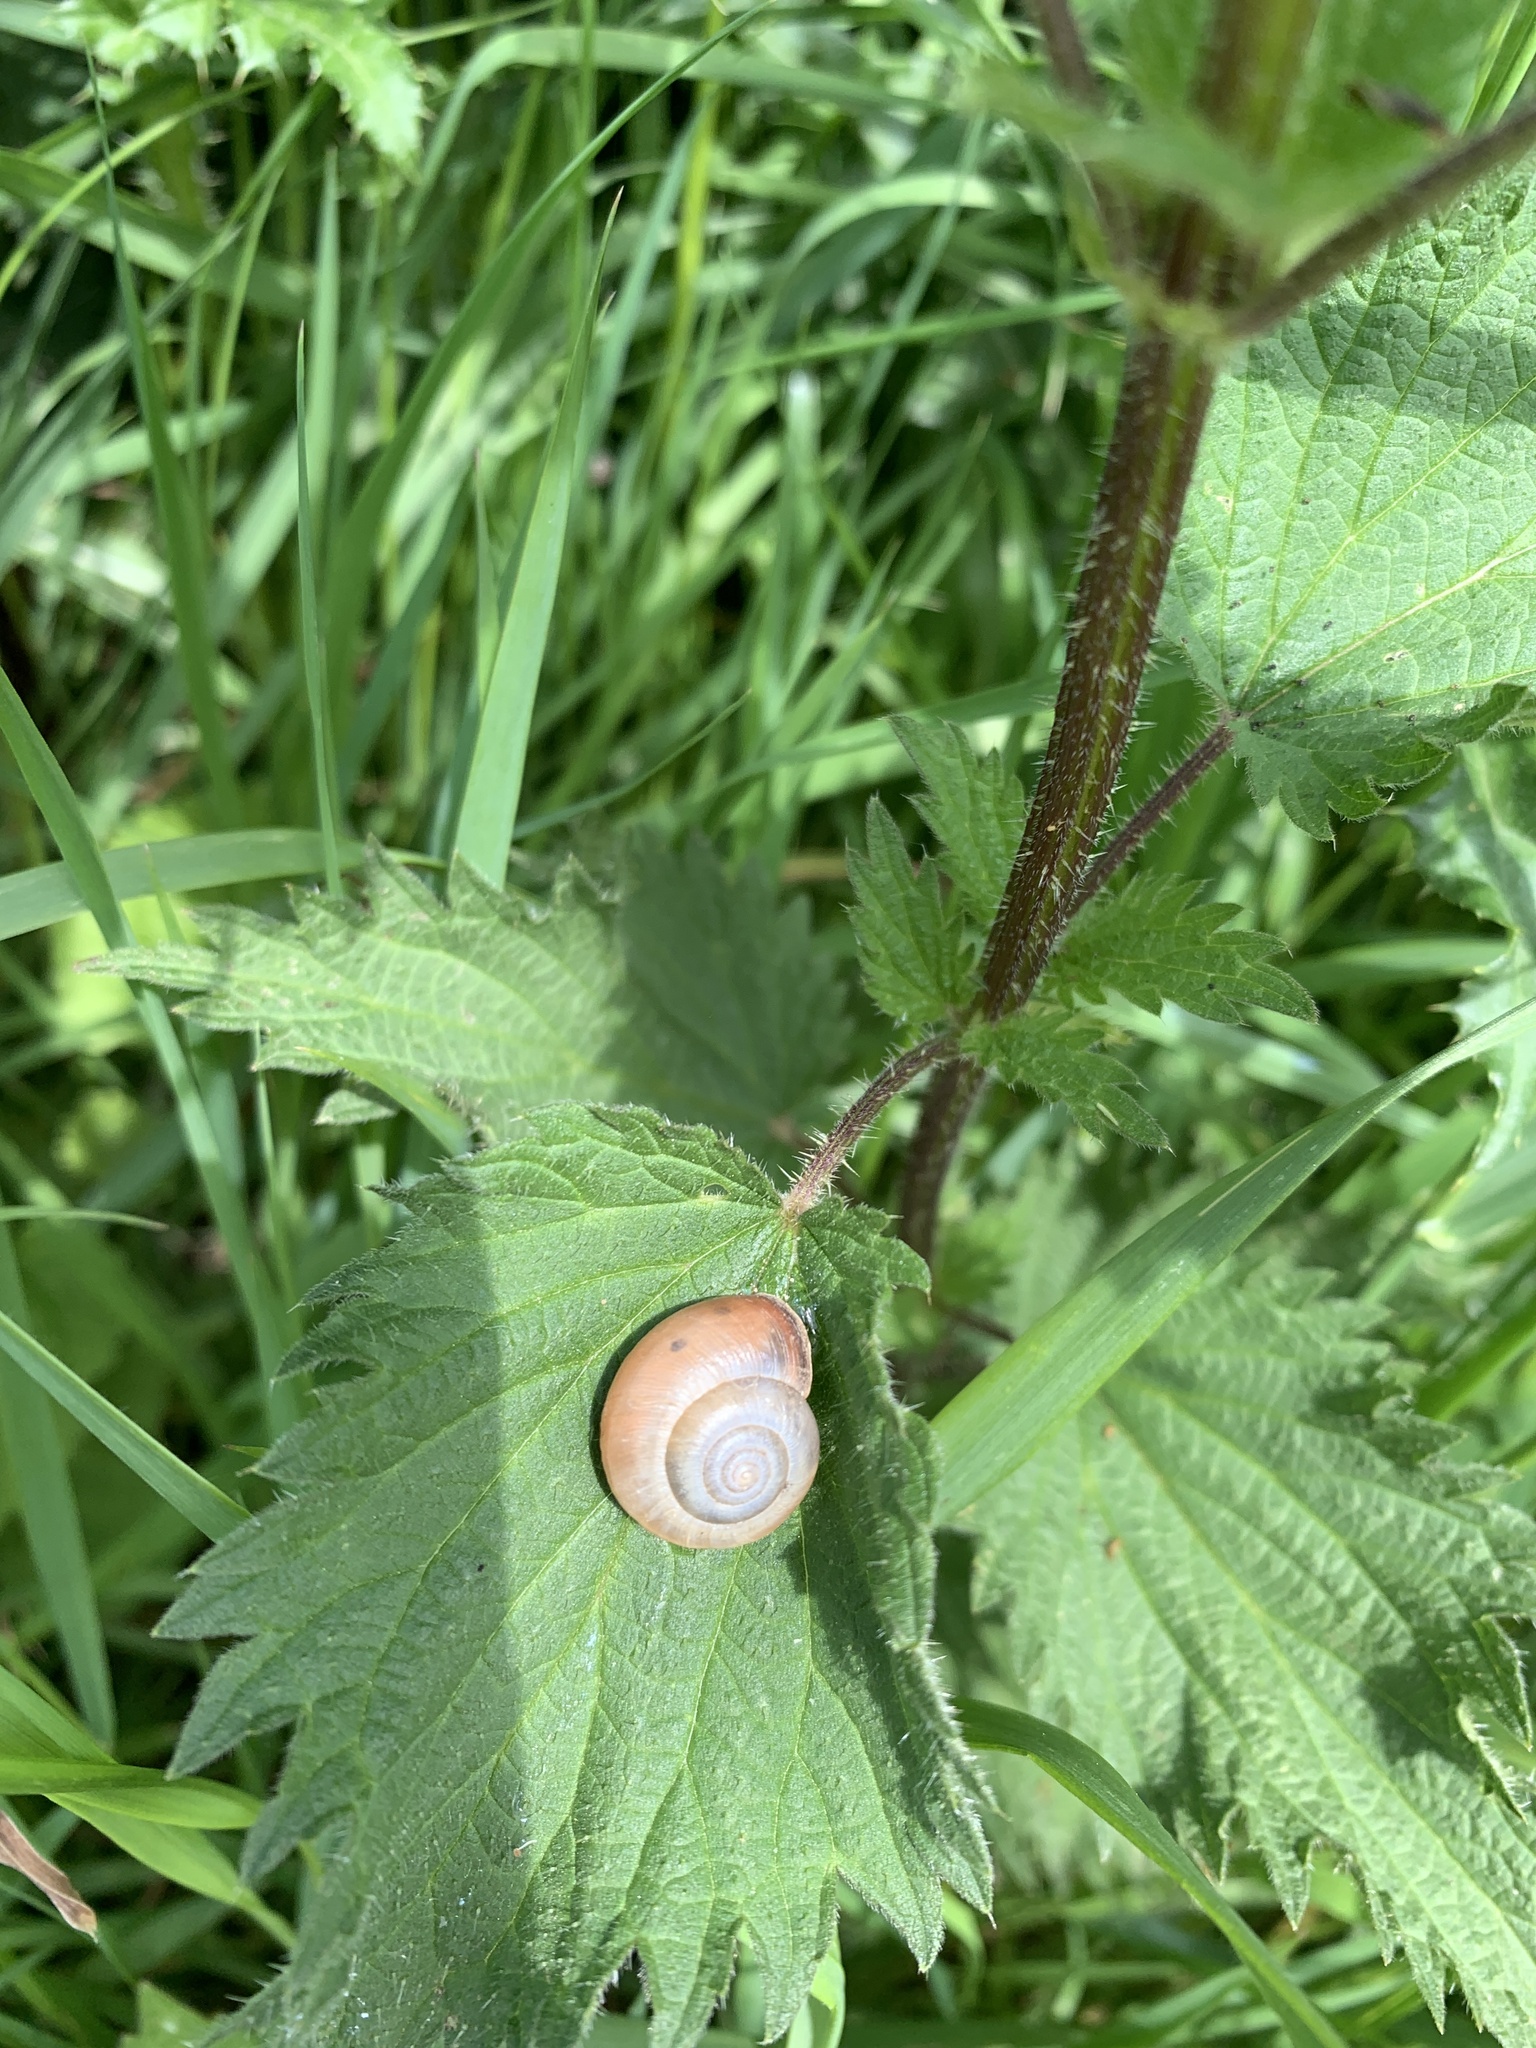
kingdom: Animalia
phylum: Mollusca
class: Gastropoda
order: Stylommatophora
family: Hygromiidae
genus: Monacha
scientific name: Monacha cantiana
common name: Kentish snail
